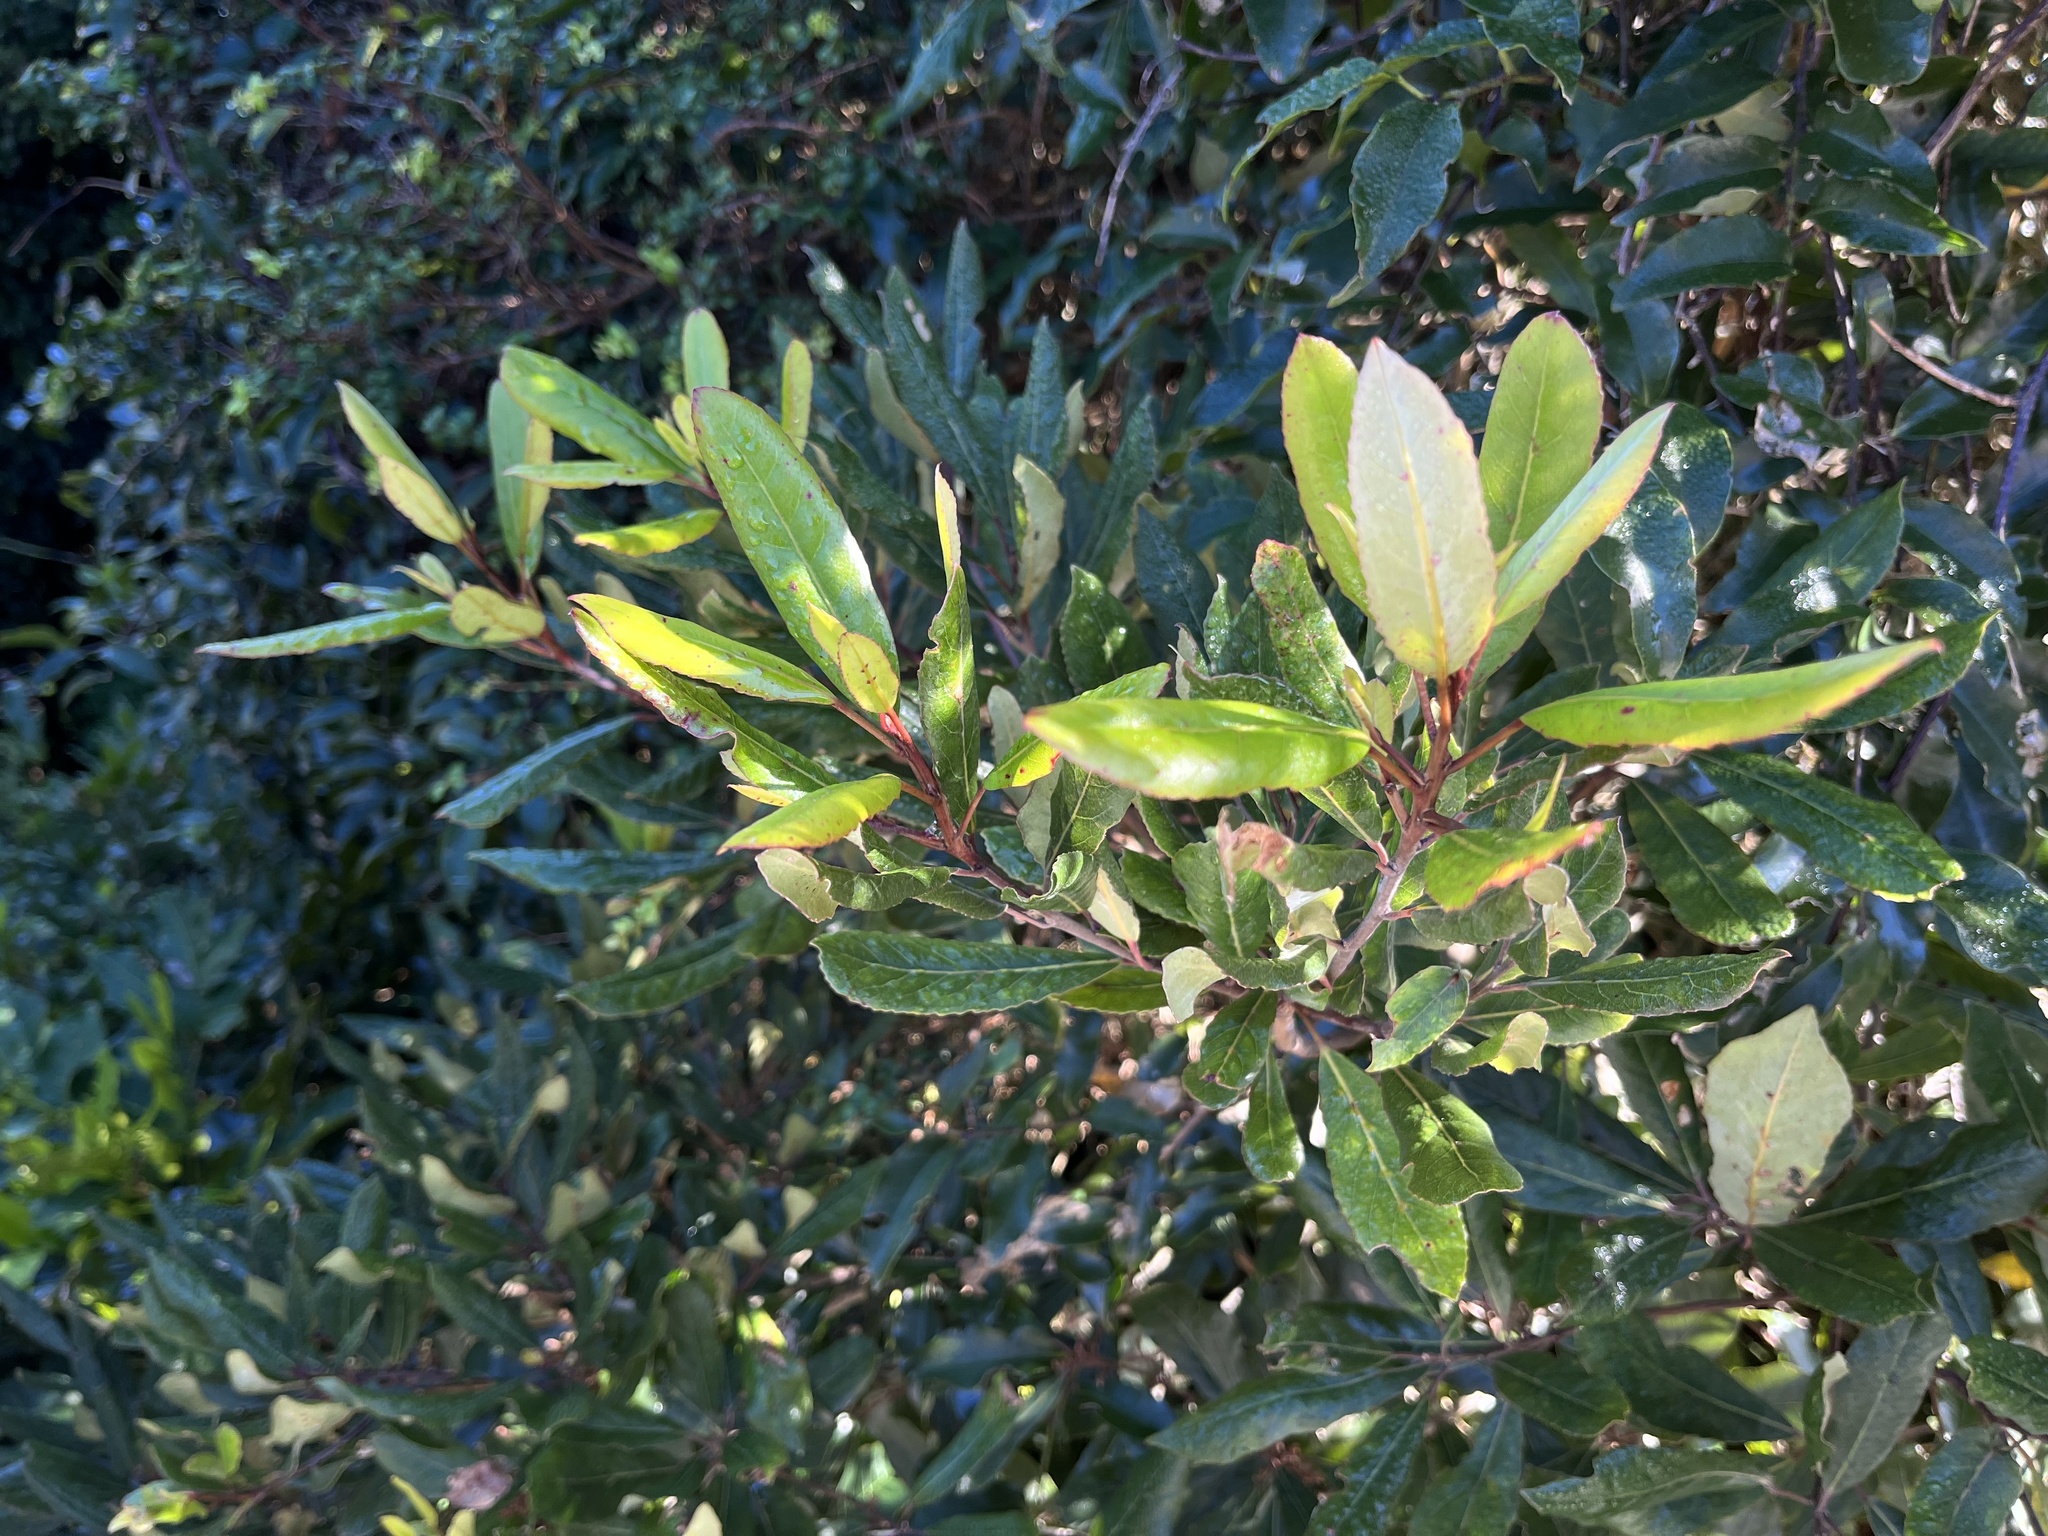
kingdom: Plantae
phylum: Tracheophyta
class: Magnoliopsida
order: Oxalidales
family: Elaeocarpaceae
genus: Elaeocarpus
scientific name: Elaeocarpus dentatus
